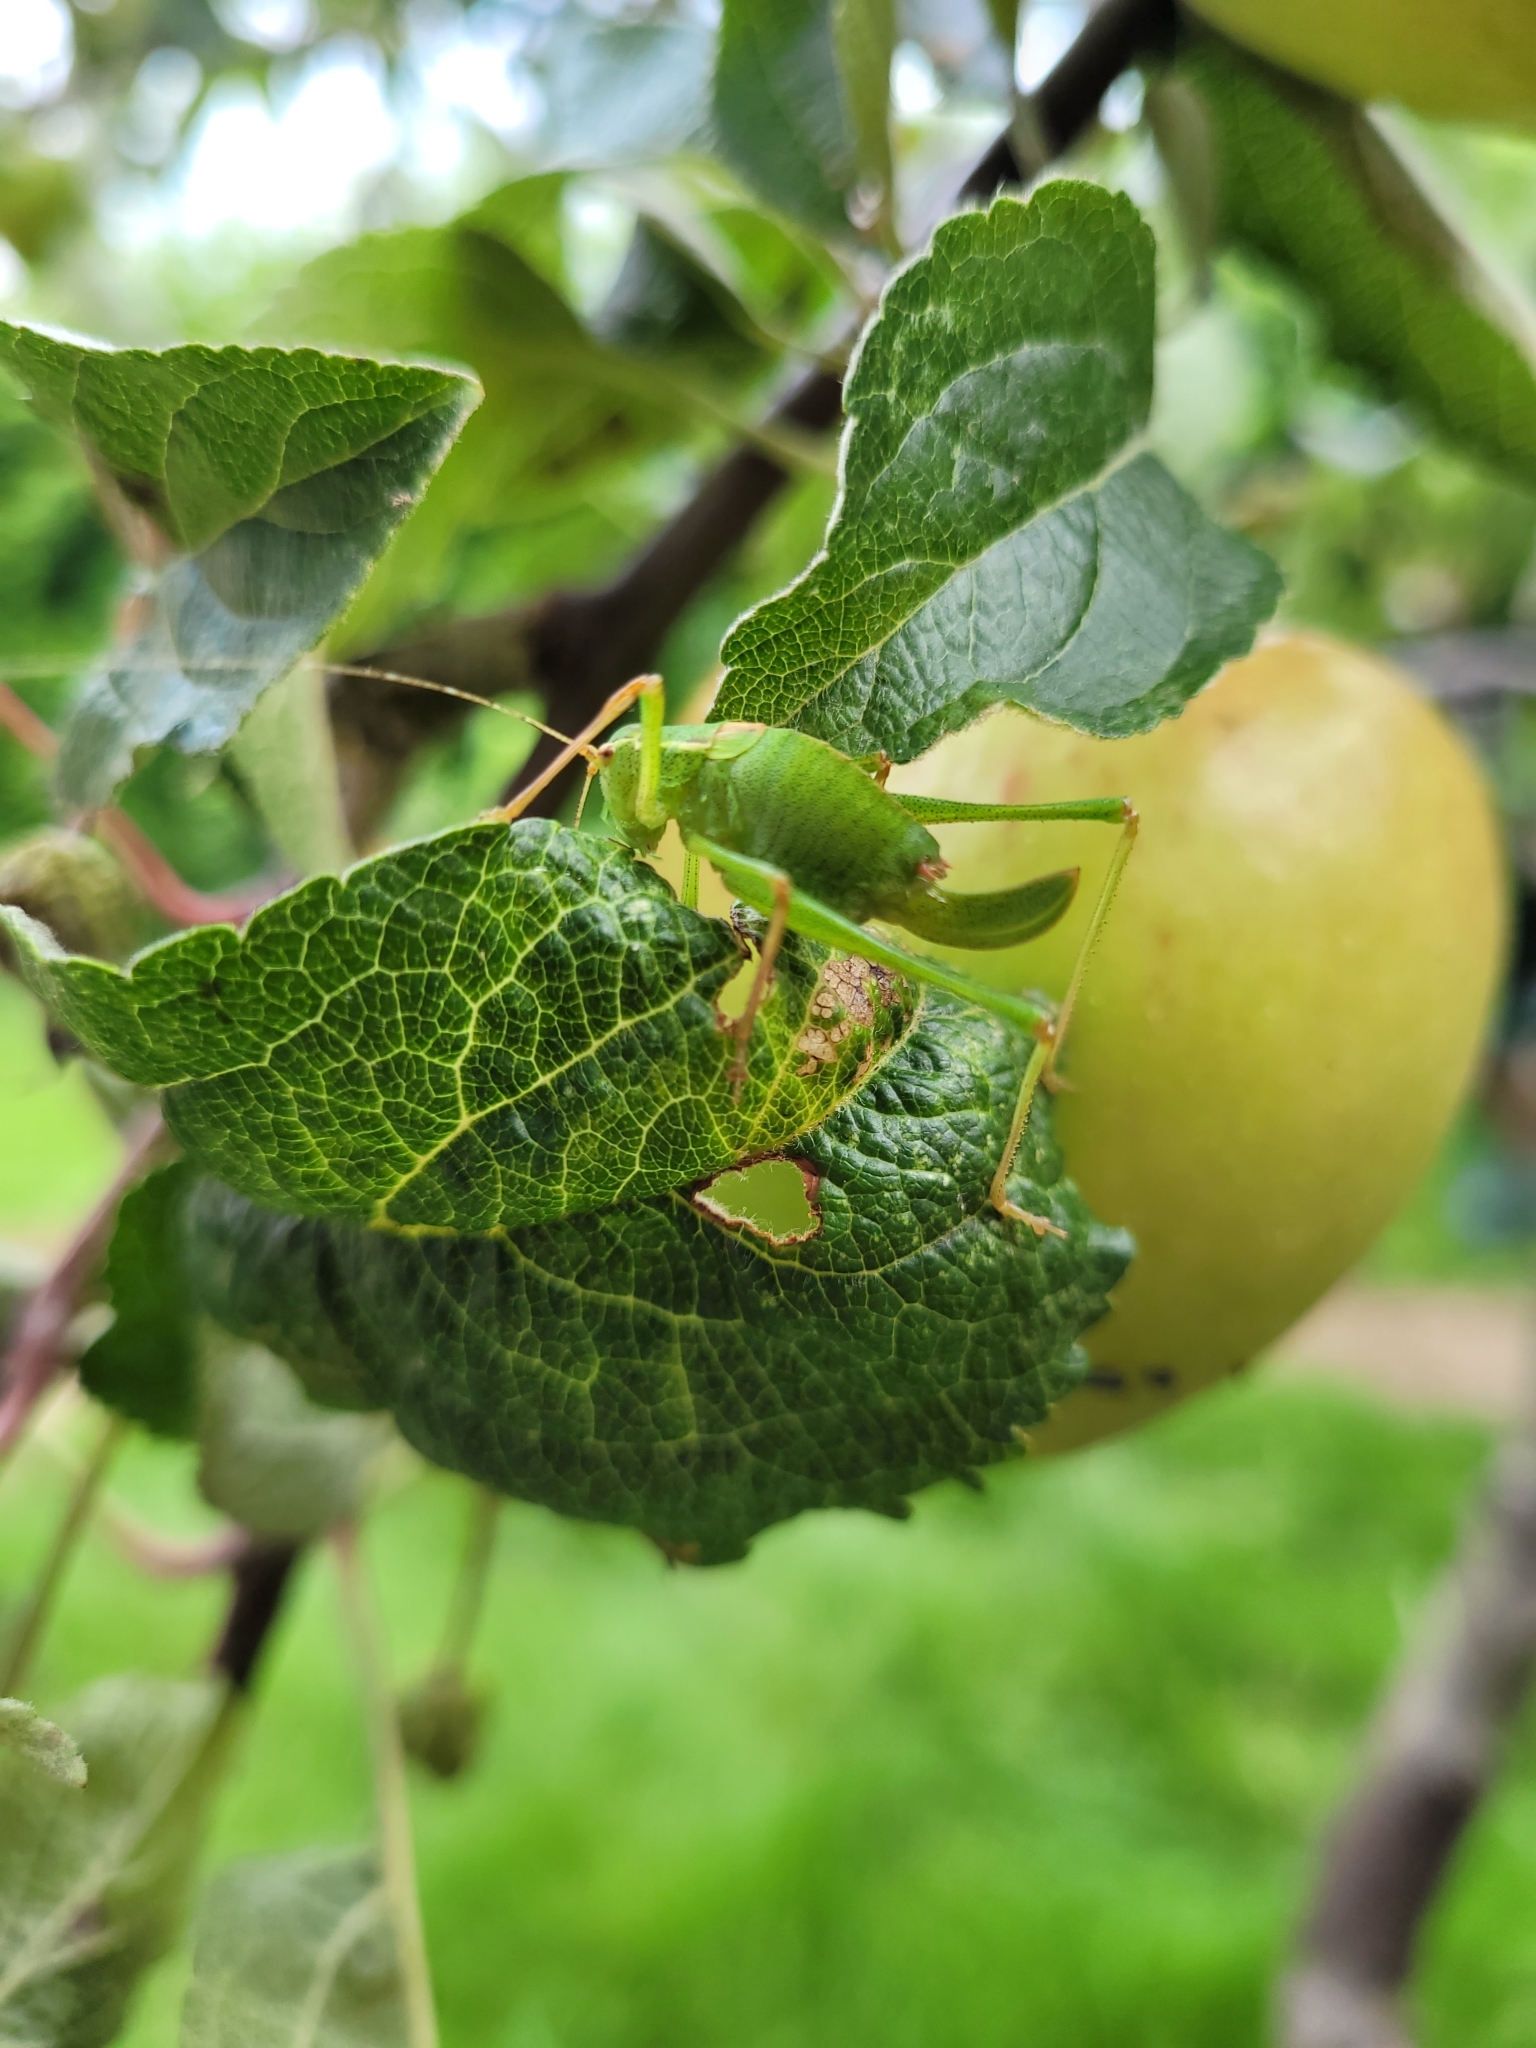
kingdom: Animalia
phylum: Arthropoda
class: Insecta
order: Orthoptera
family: Tettigoniidae
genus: Leptophyes
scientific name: Leptophyes punctatissima
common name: Speckled bush-cricket
